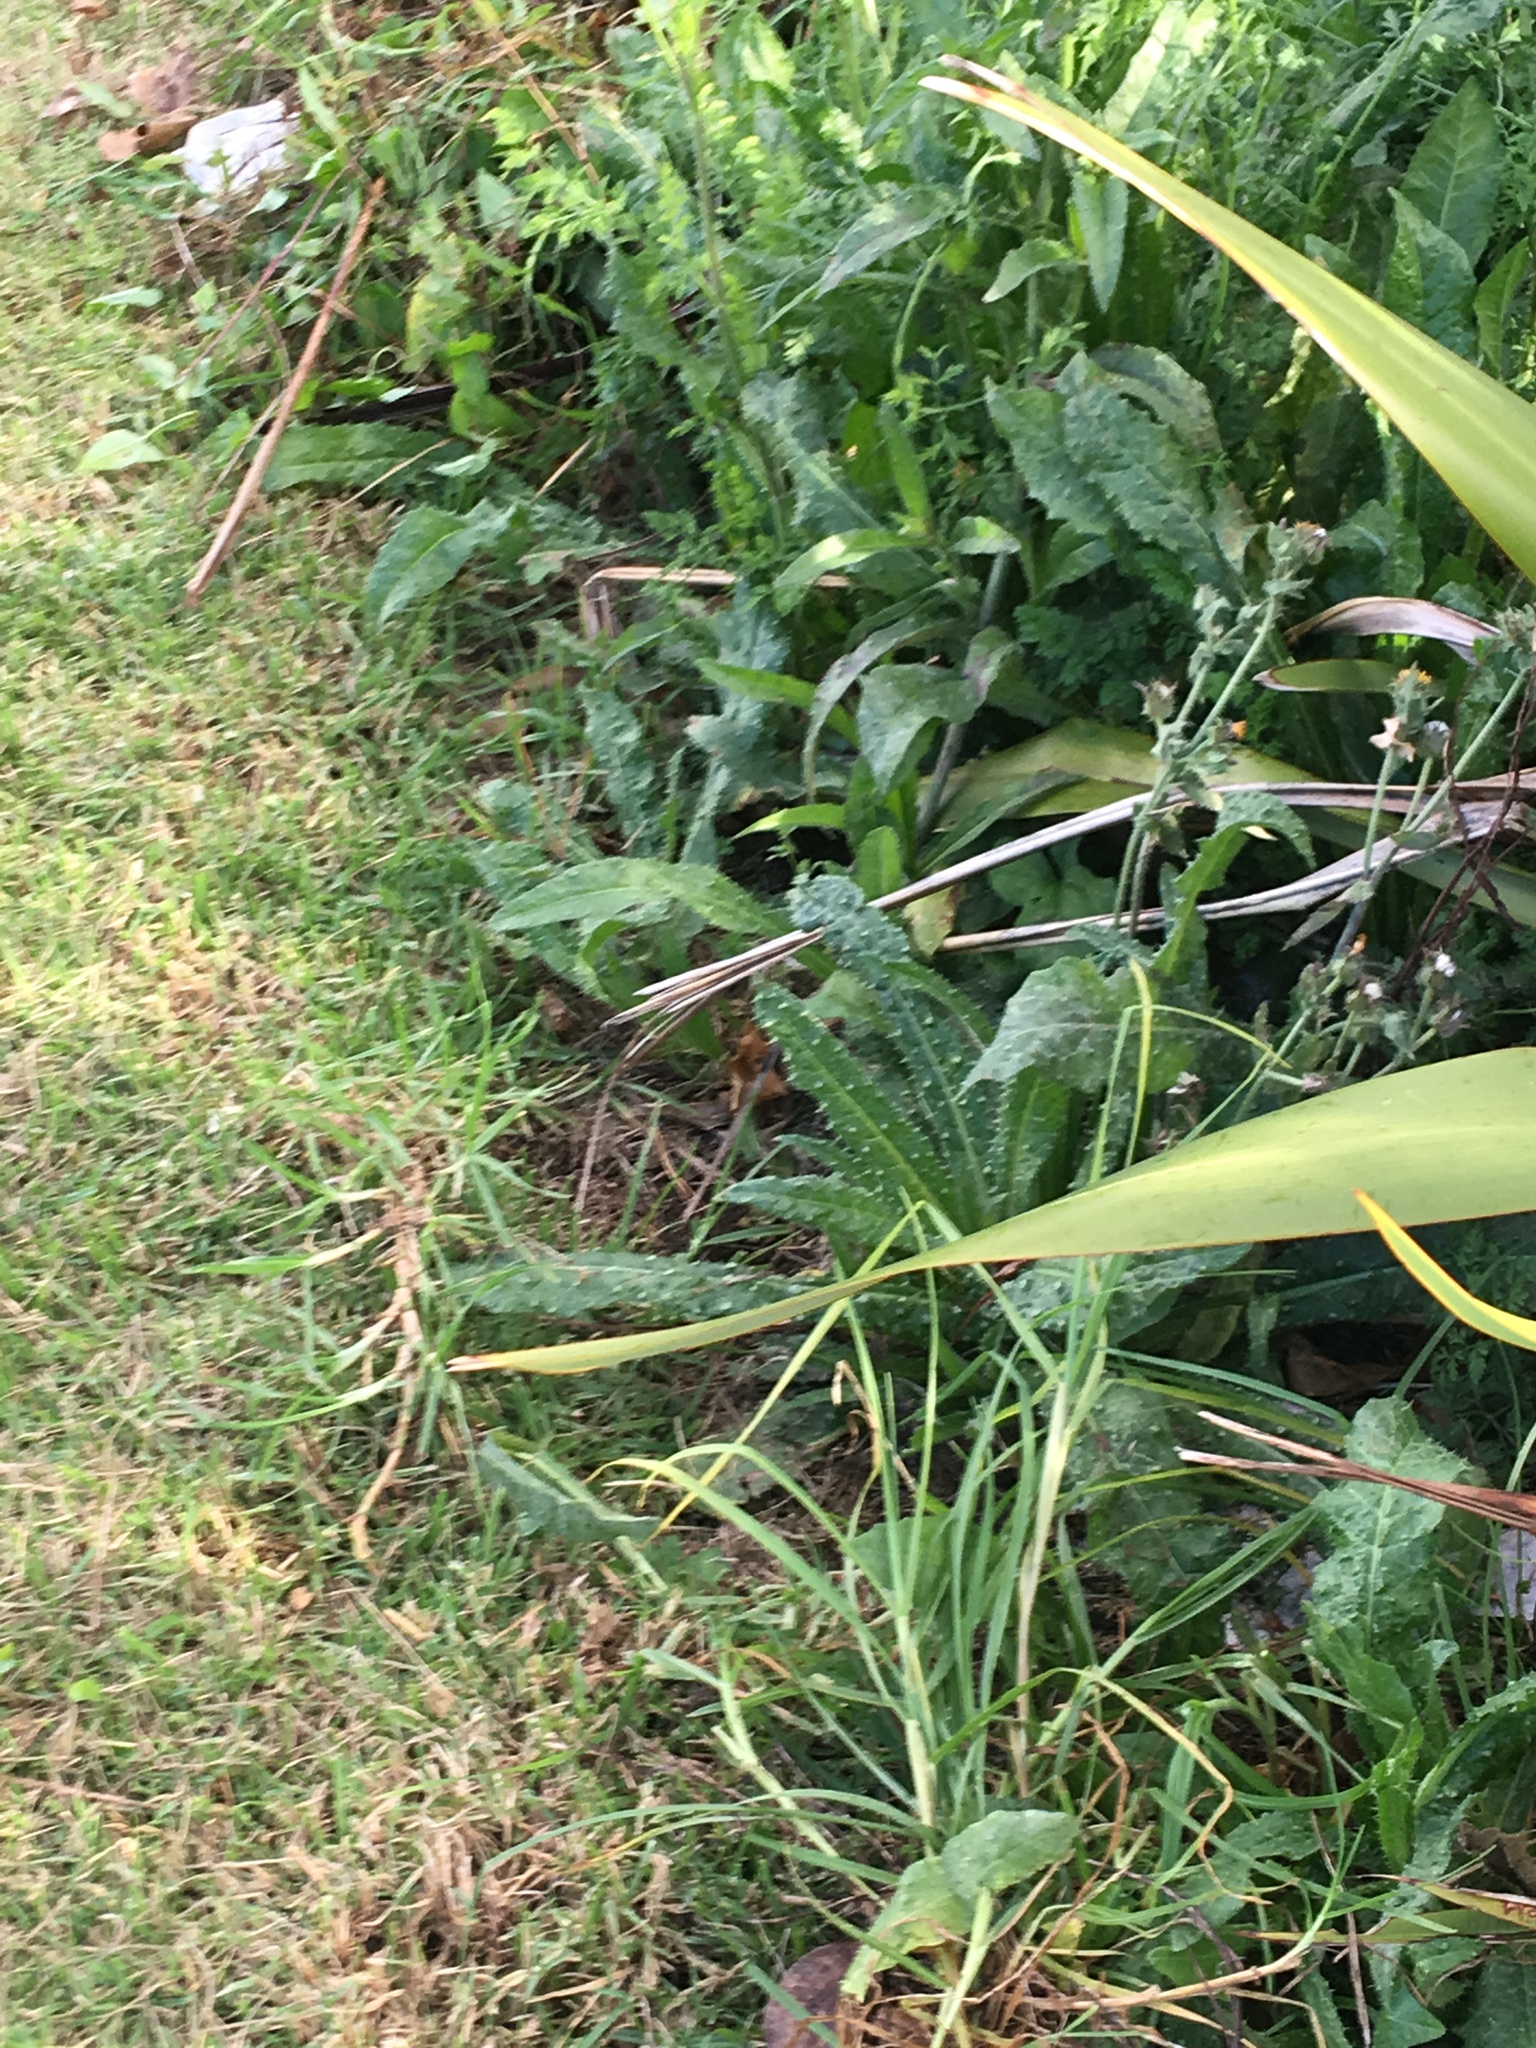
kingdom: Plantae
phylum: Tracheophyta
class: Magnoliopsida
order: Asterales
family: Asteraceae
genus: Helminthotheca
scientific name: Helminthotheca echioides
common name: Ox-tongue
